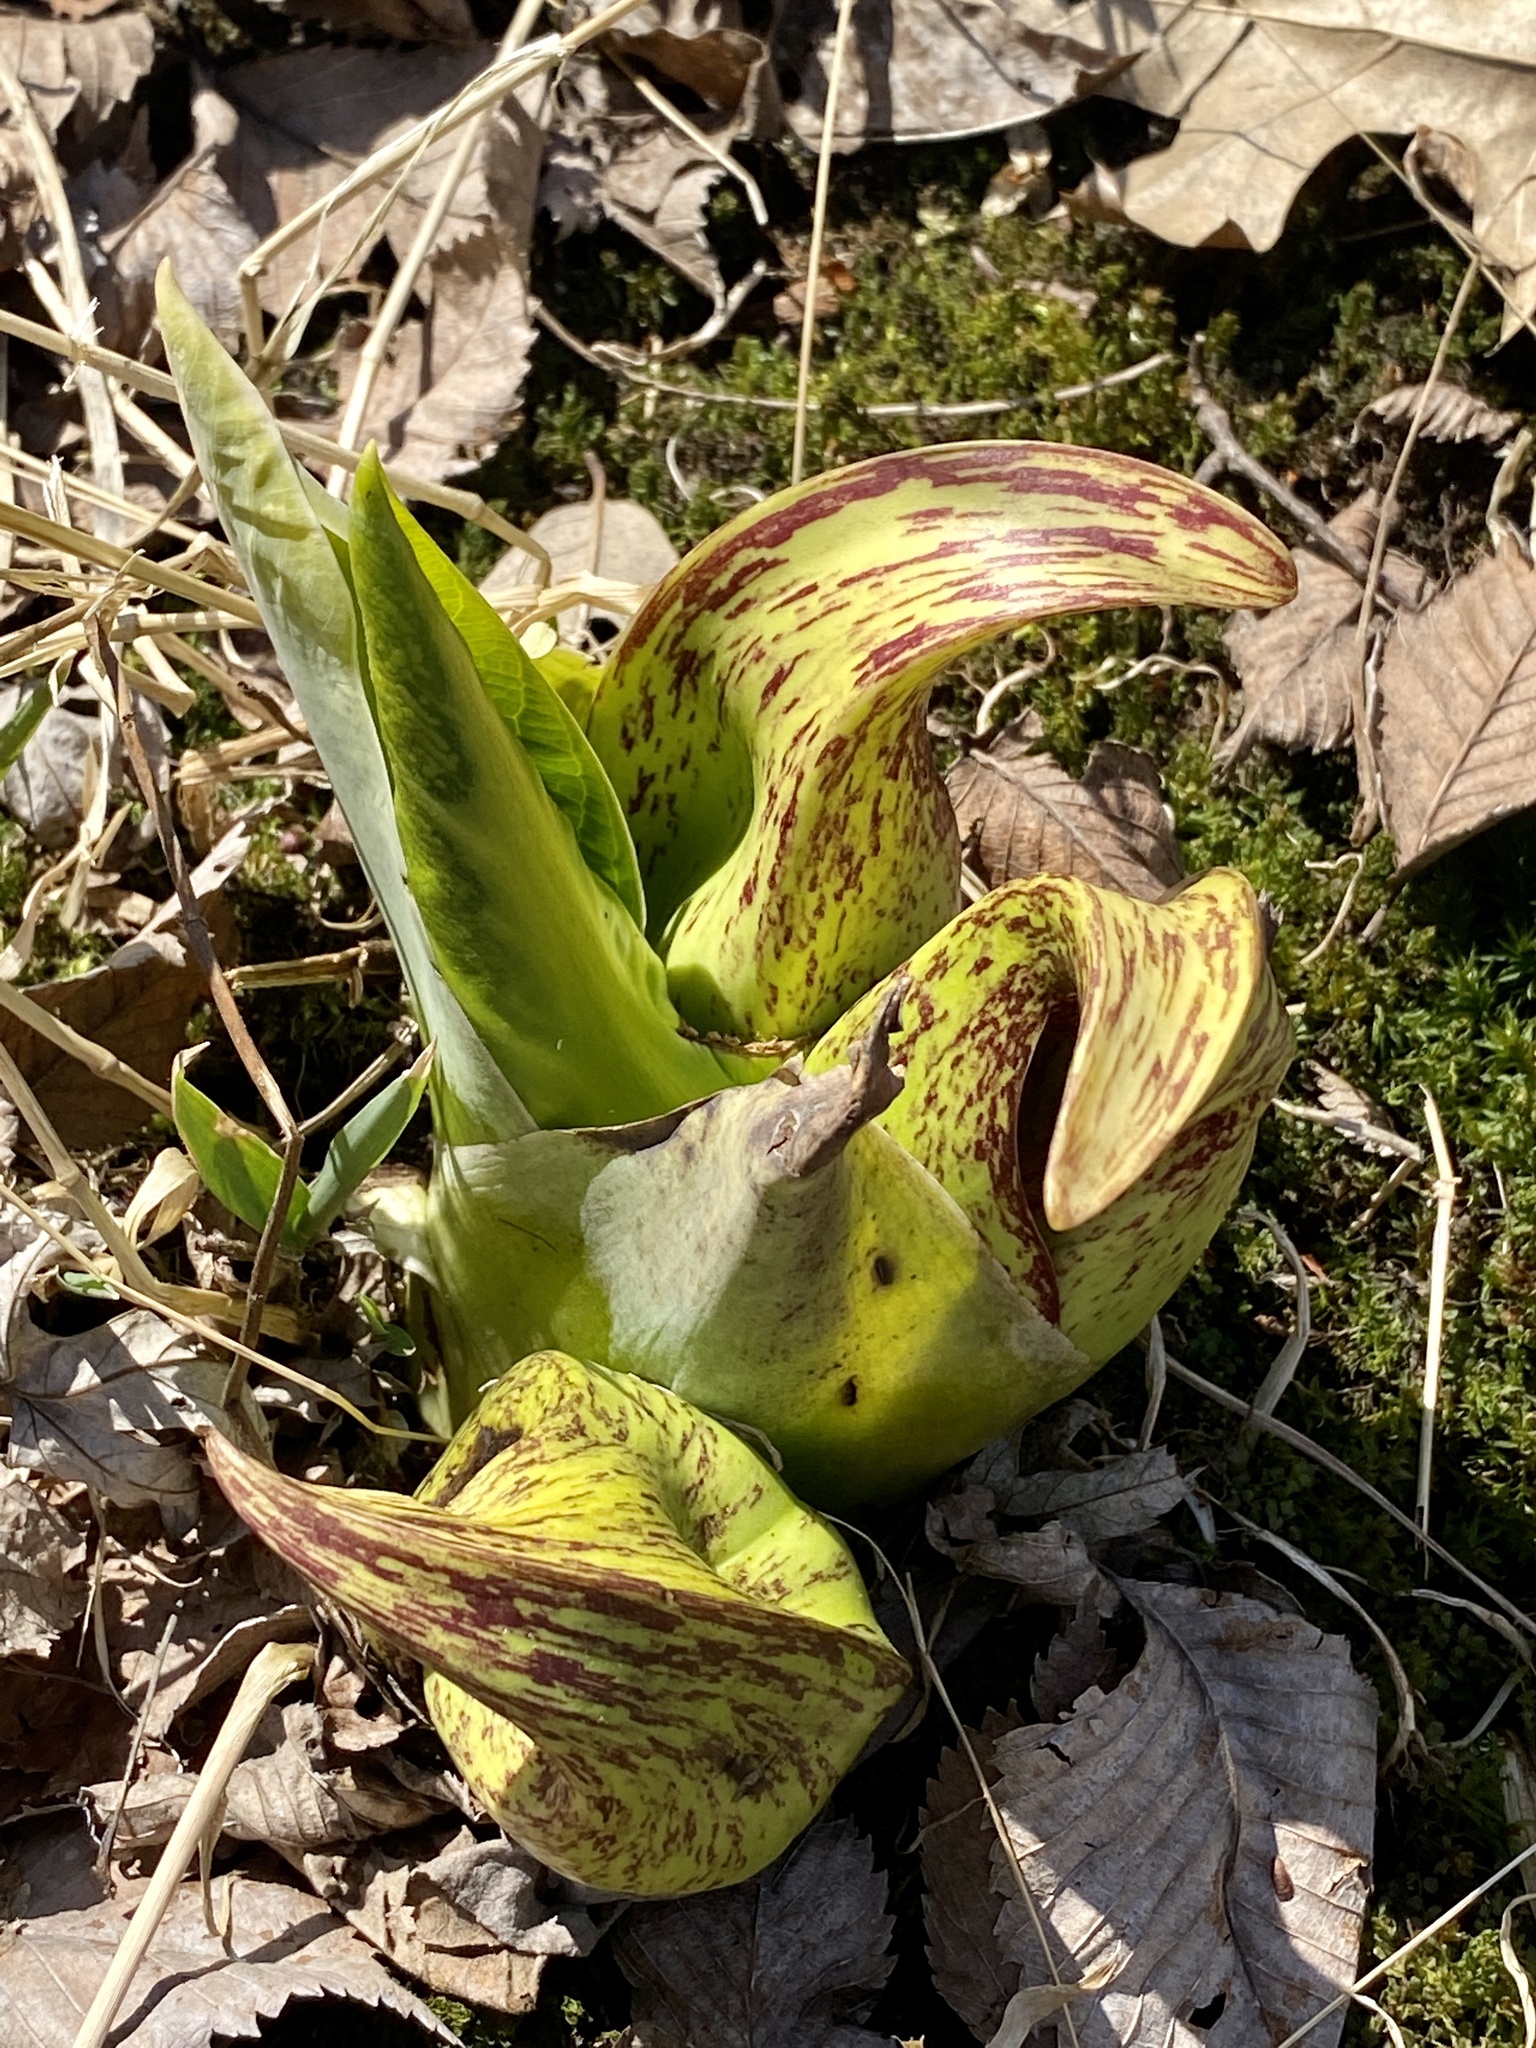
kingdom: Plantae
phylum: Tracheophyta
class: Liliopsida
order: Alismatales
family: Araceae
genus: Symplocarpus
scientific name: Symplocarpus foetidus
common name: Eastern skunk cabbage
